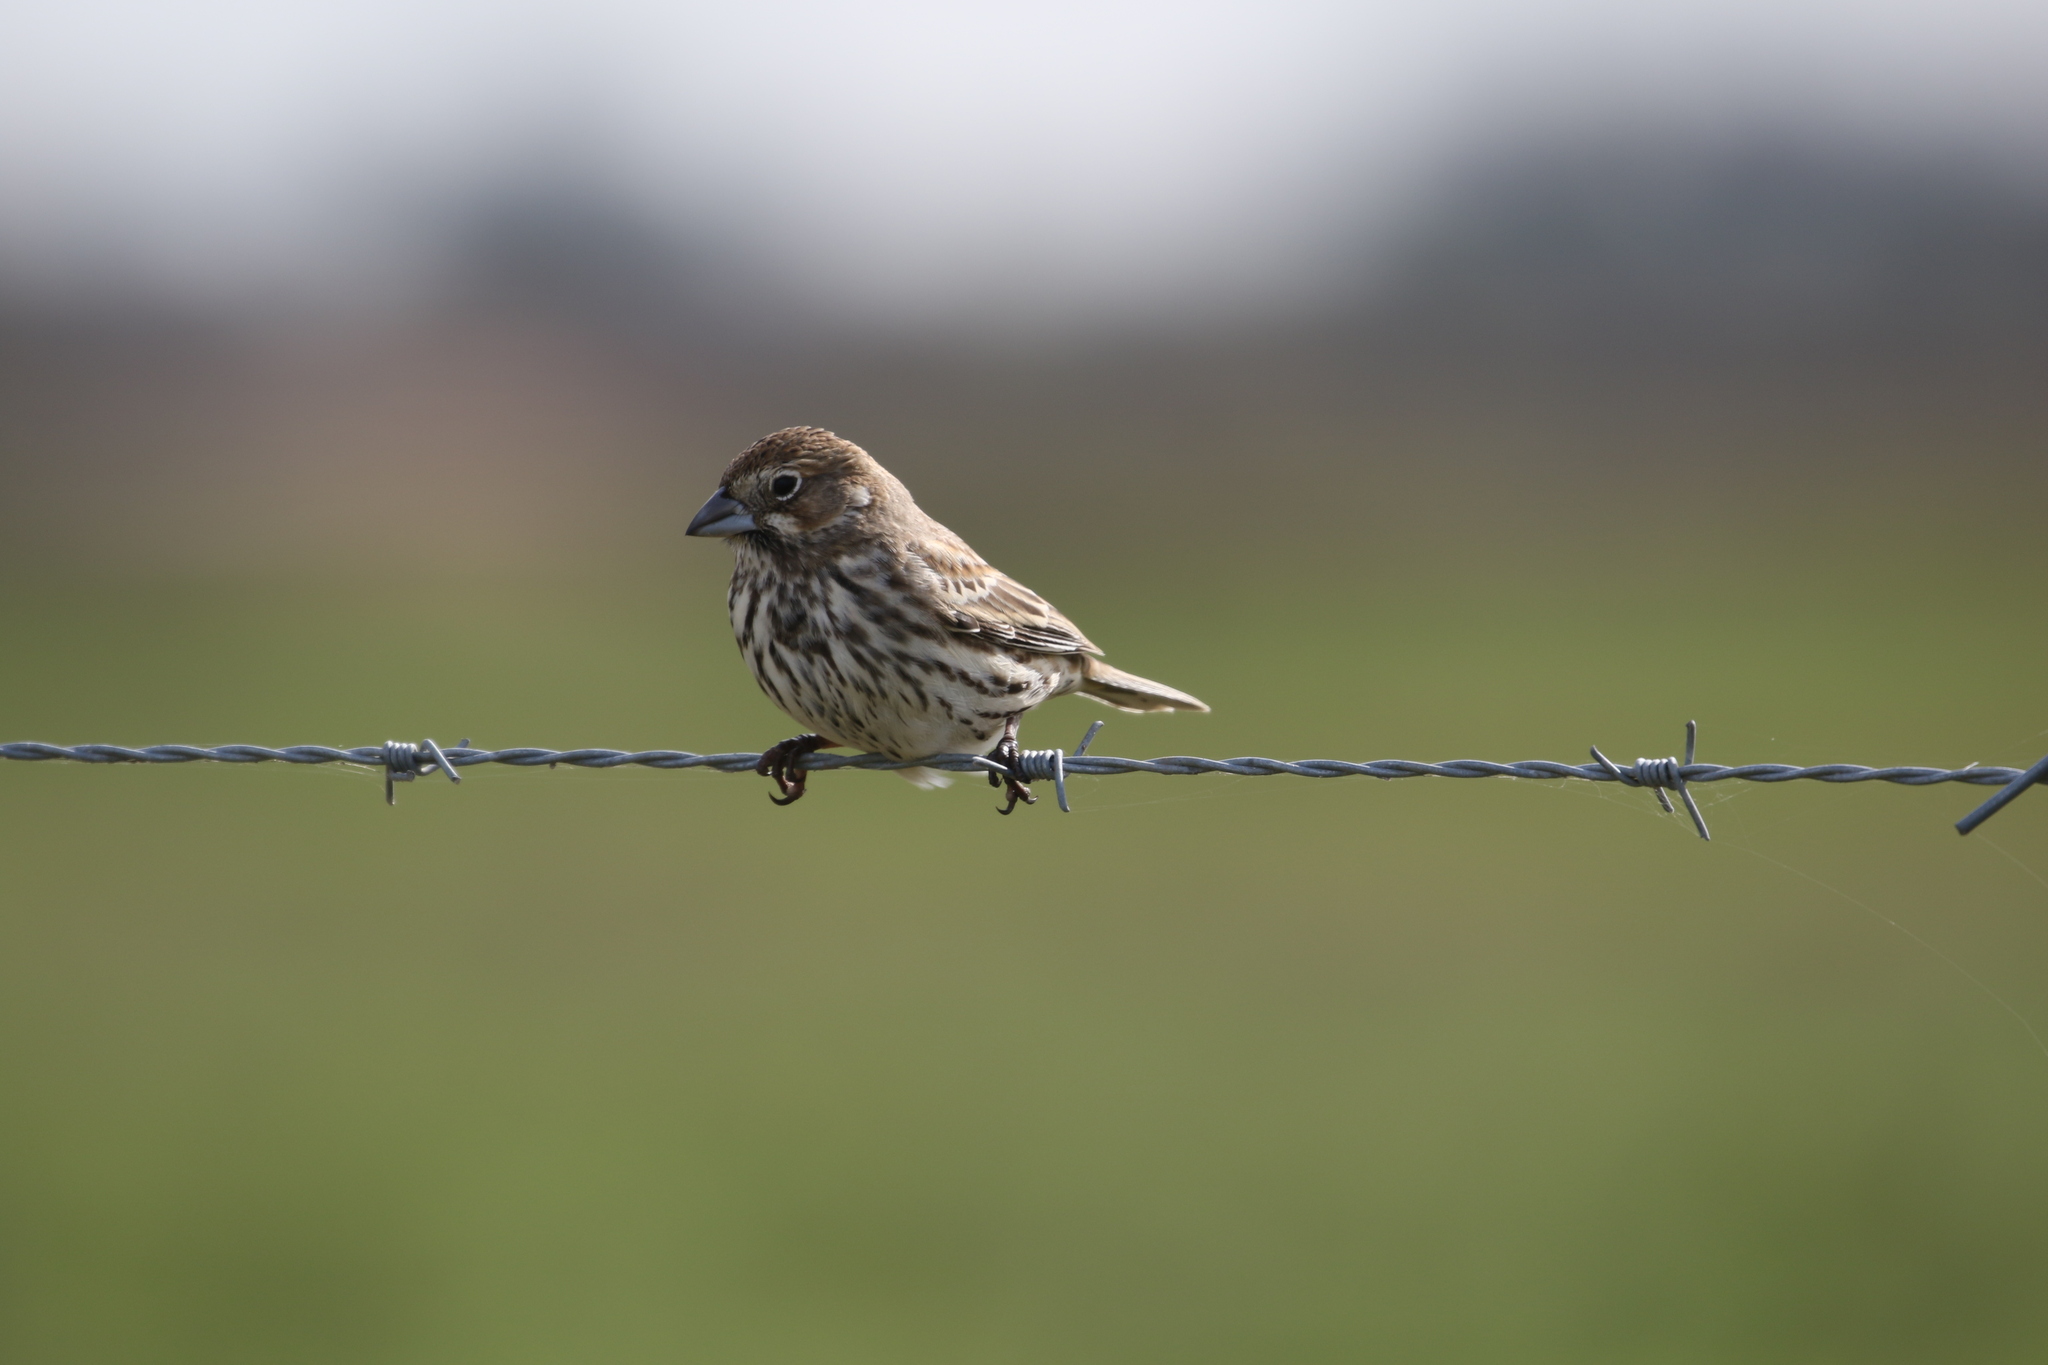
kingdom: Animalia
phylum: Chordata
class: Aves
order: Passeriformes
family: Passerellidae
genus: Calamospiza
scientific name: Calamospiza melanocorys
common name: Lark bunting
